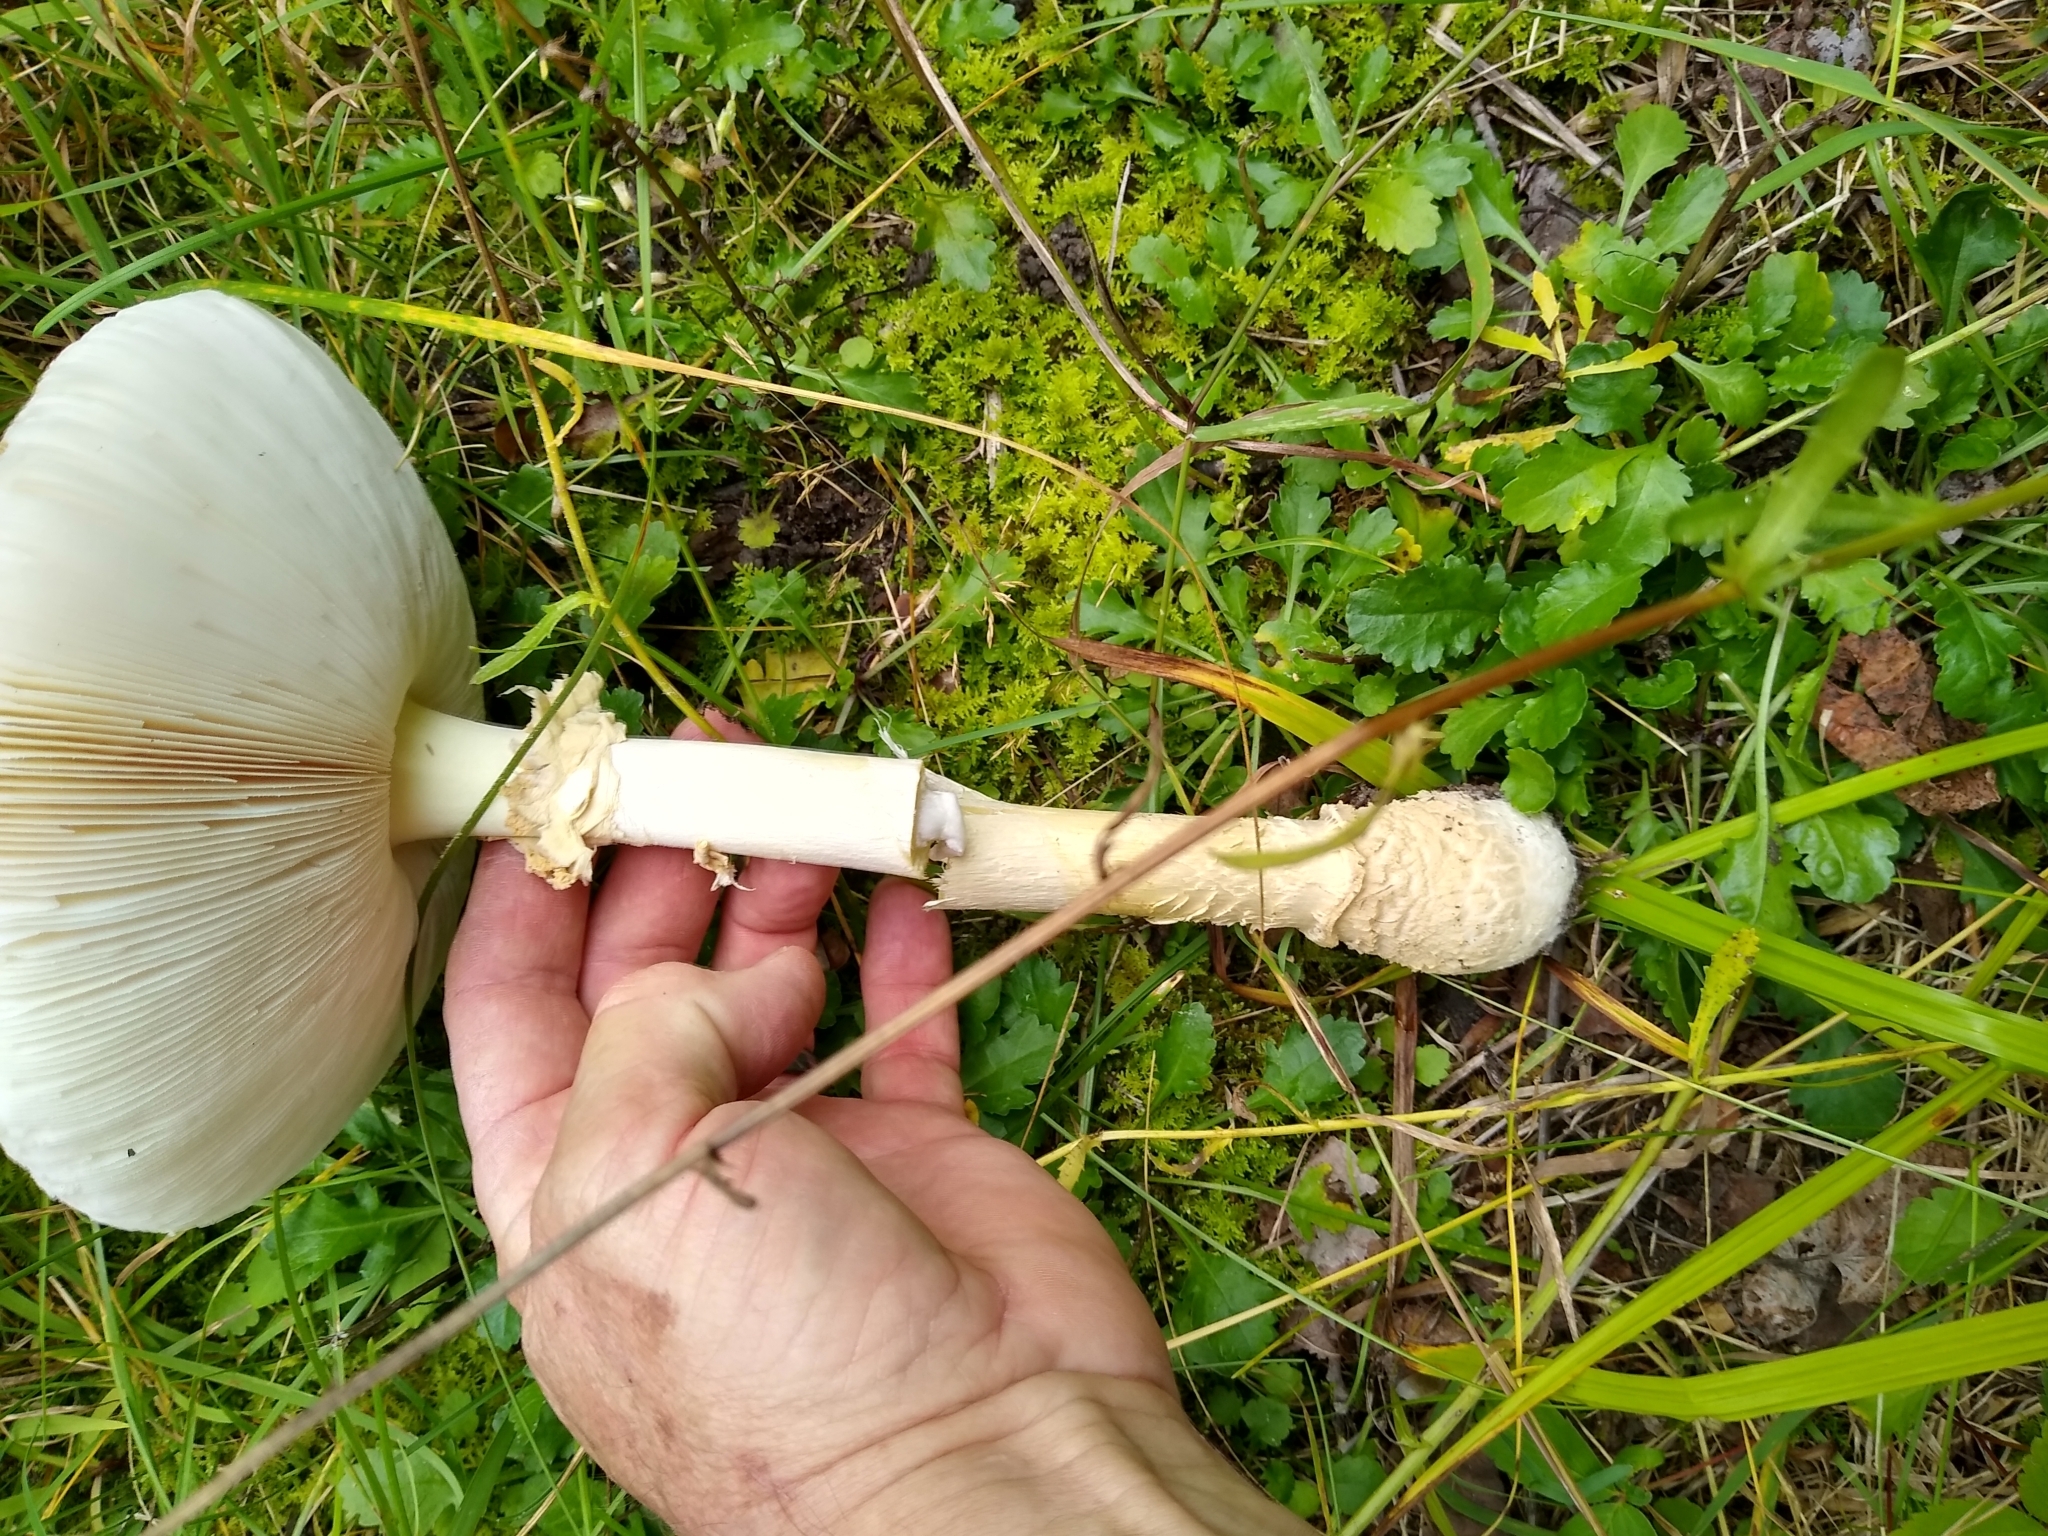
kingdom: Fungi
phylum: Basidiomycota
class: Agaricomycetes
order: Agaricales
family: Amanitaceae
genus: Amanita
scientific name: Amanita muscaria
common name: Fly agaric
